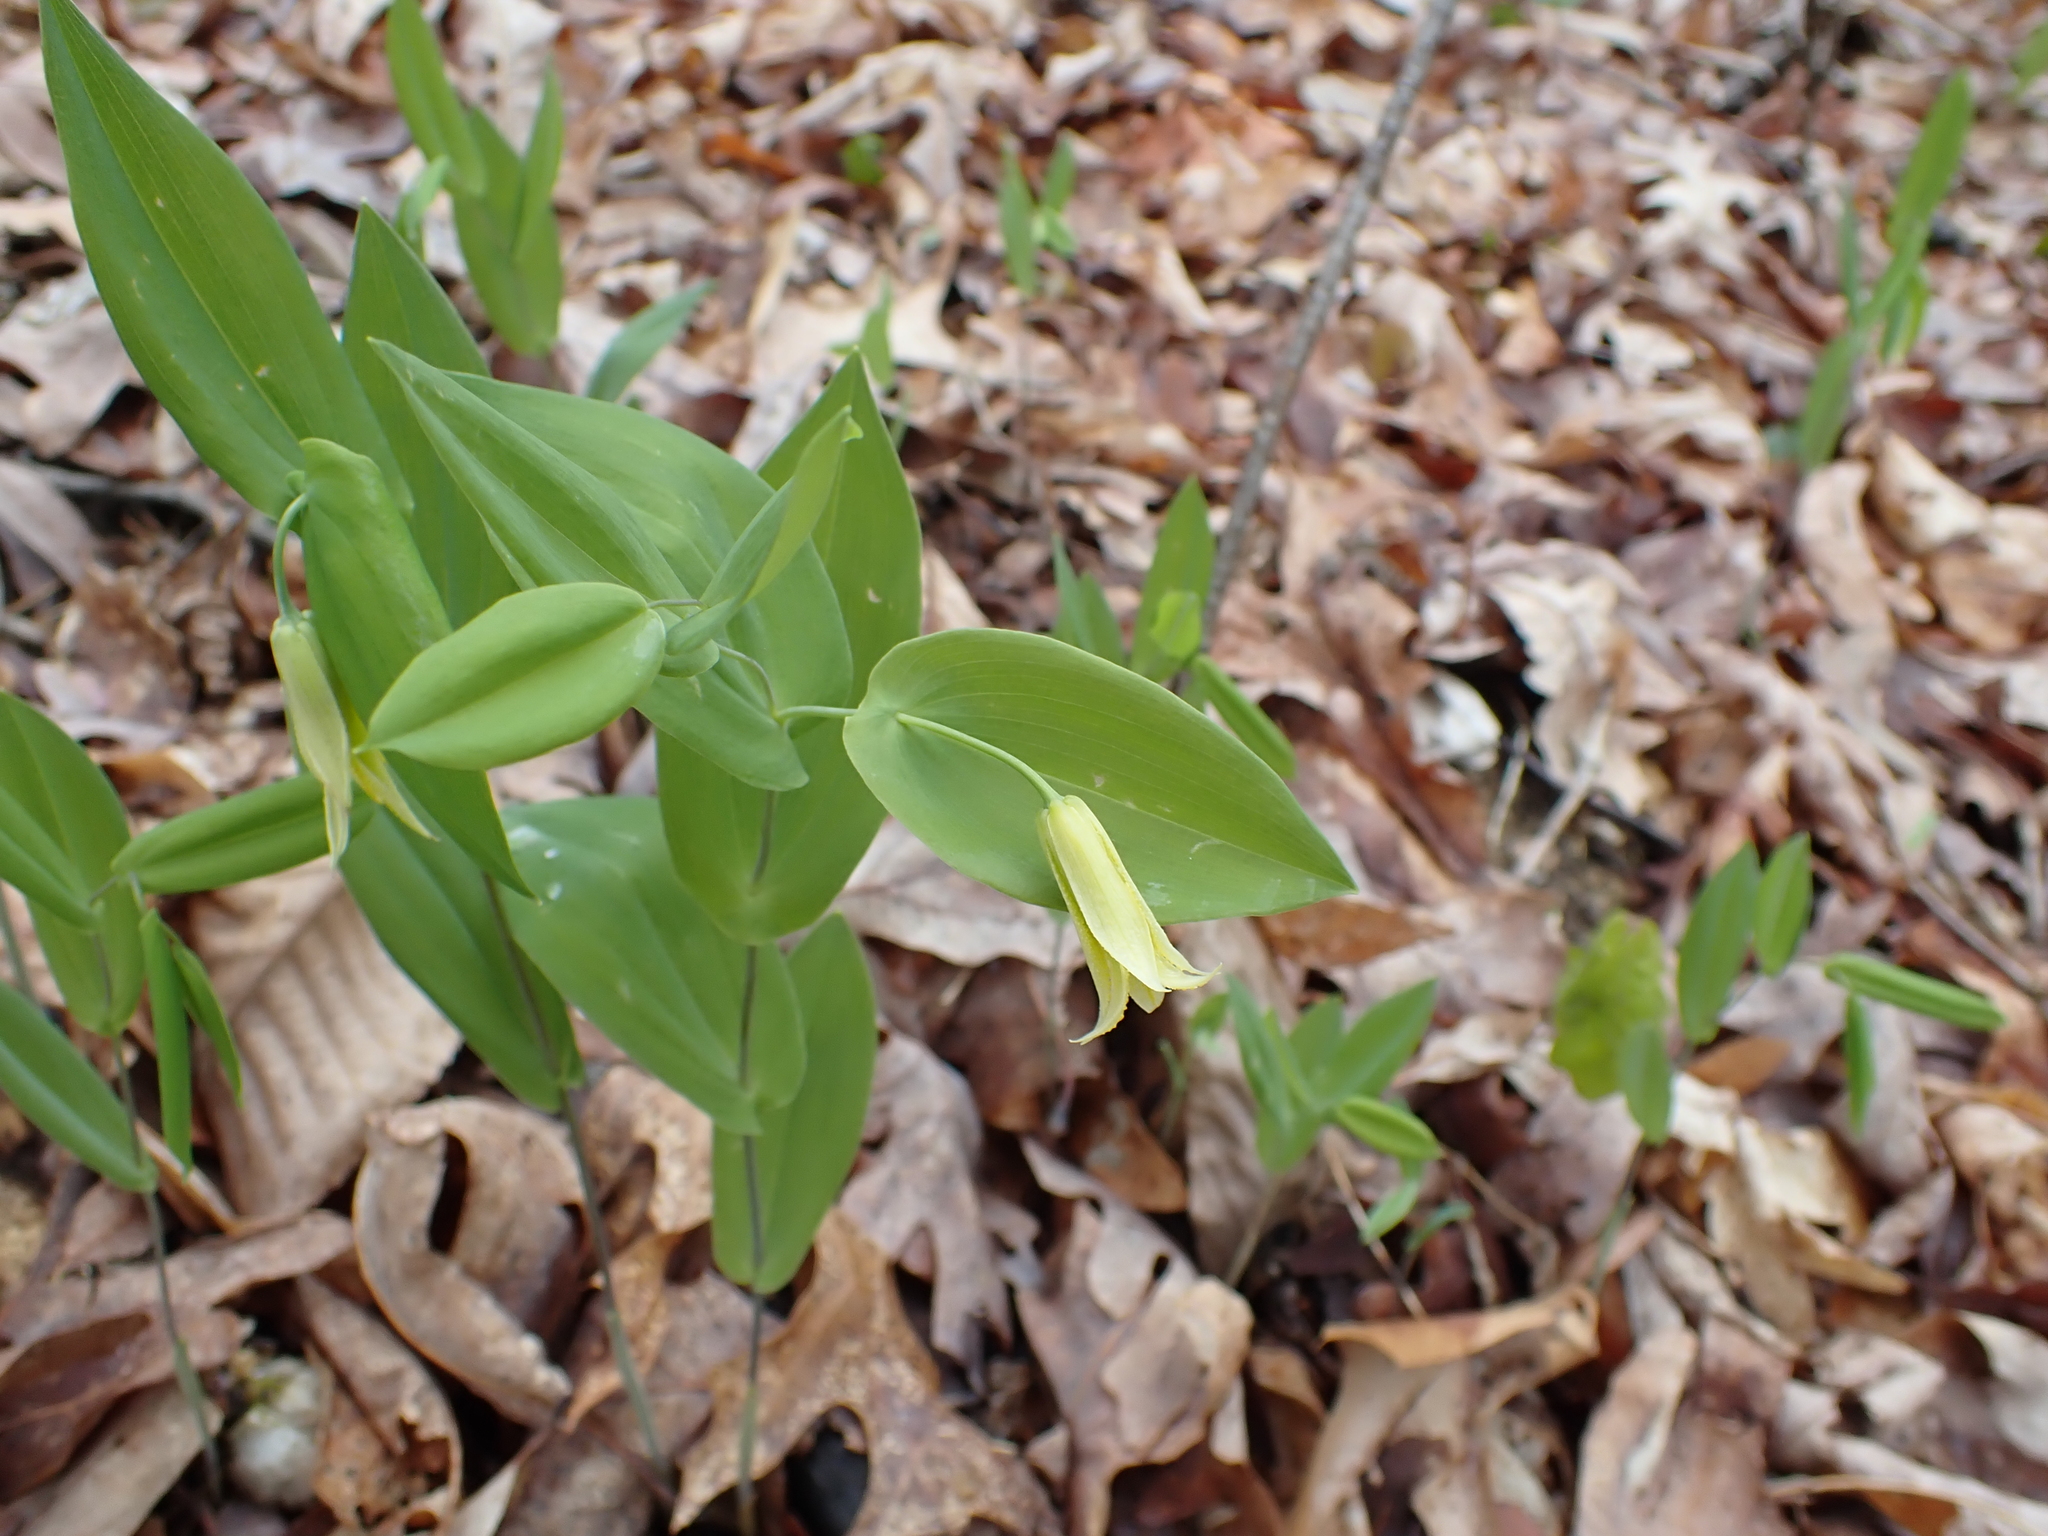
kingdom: Plantae
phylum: Tracheophyta
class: Liliopsida
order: Liliales
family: Colchicaceae
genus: Uvularia
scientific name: Uvularia perfoliata
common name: Perfoliate bellwort
